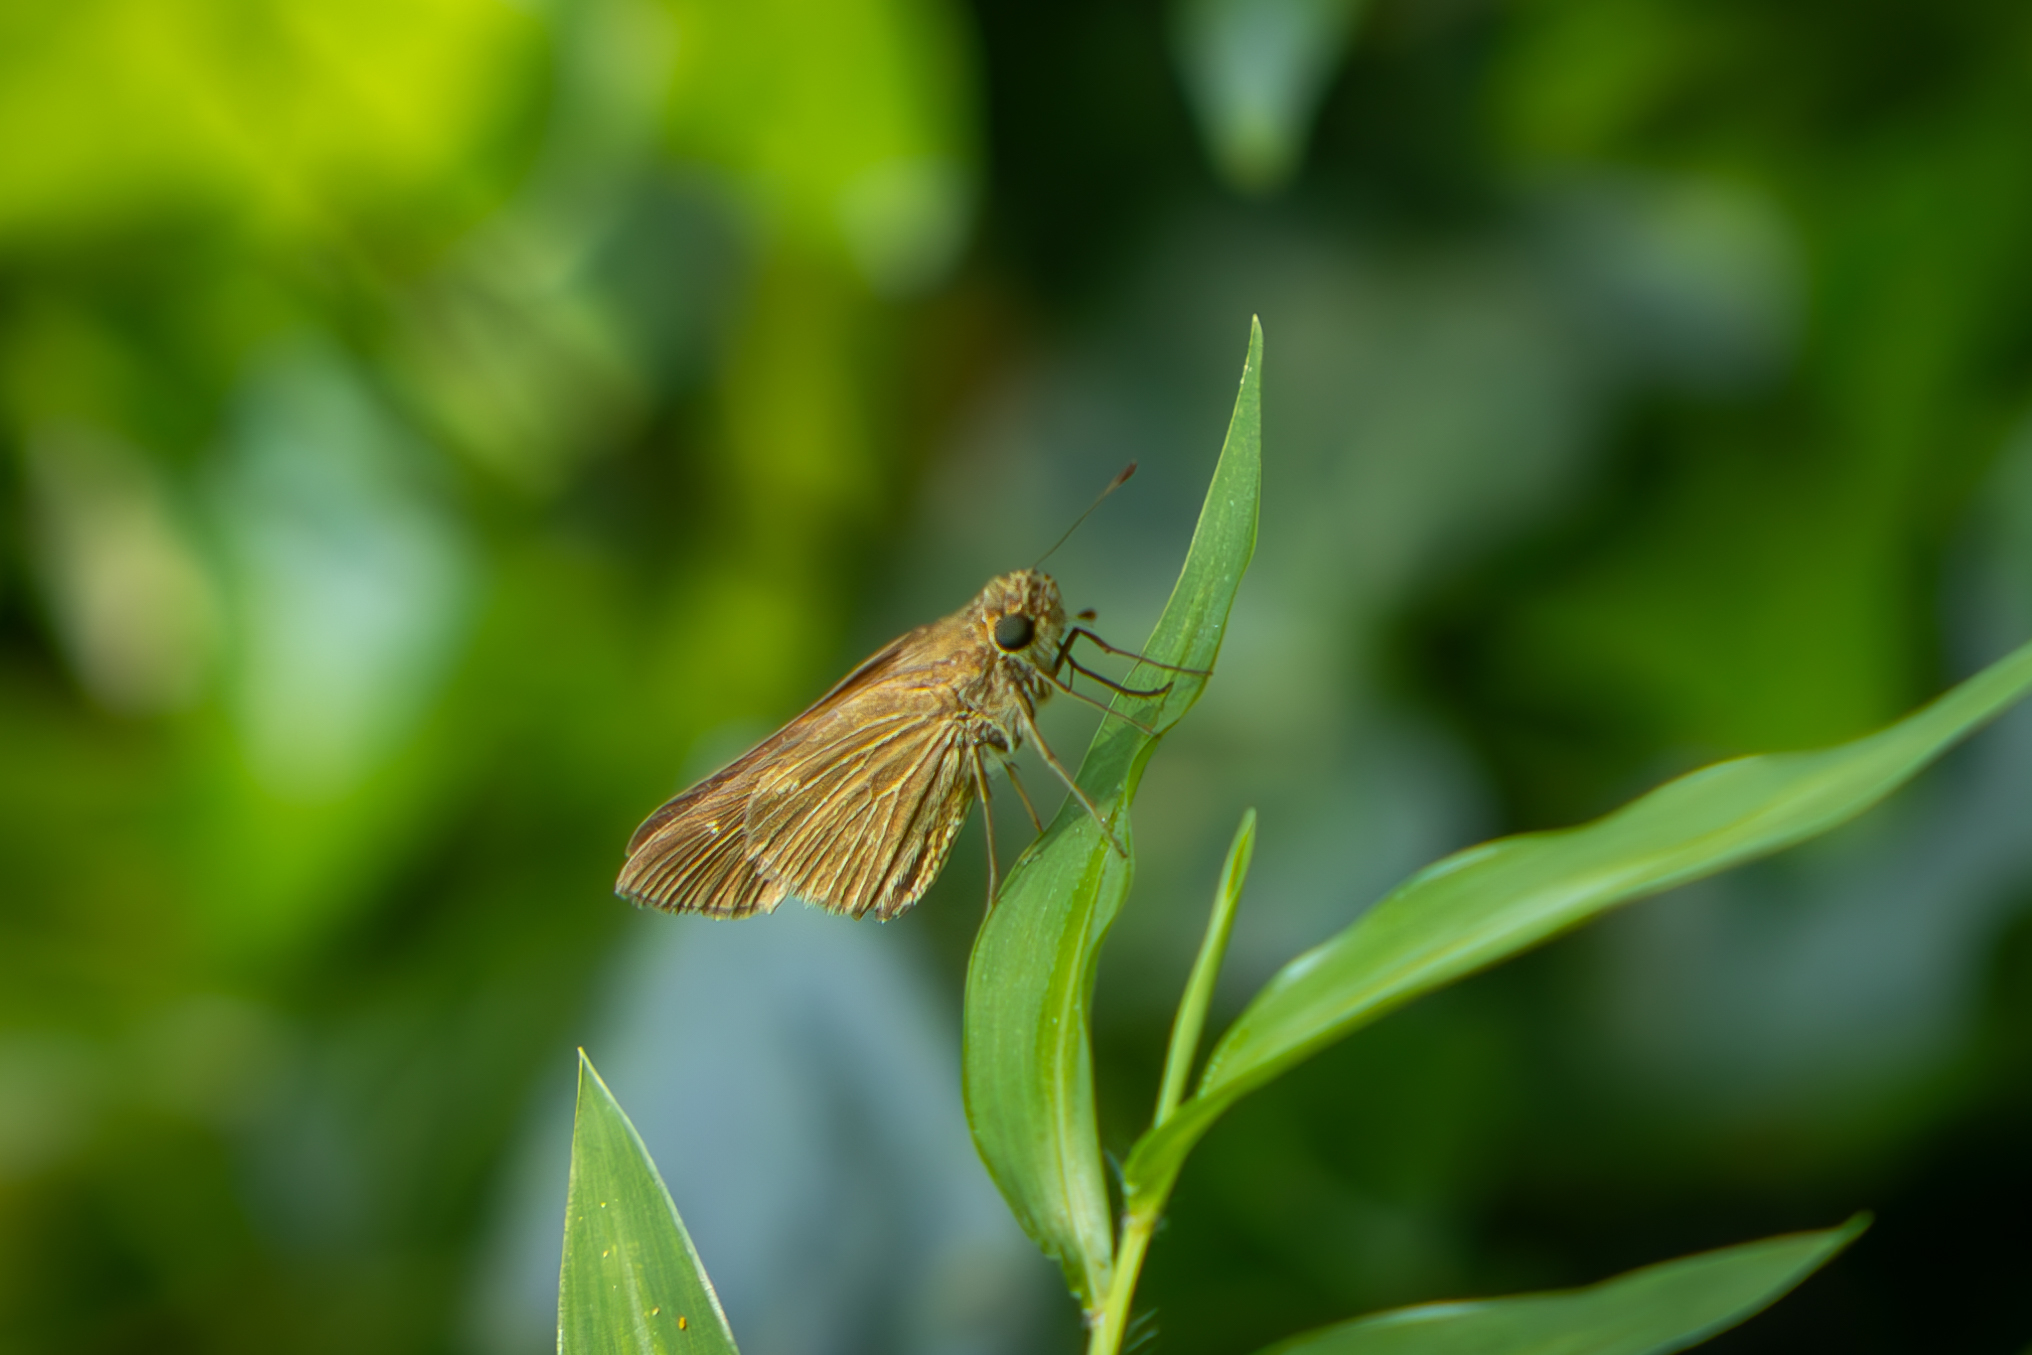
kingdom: Animalia
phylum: Arthropoda
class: Insecta
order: Lepidoptera
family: Hesperiidae
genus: Panoquina
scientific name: Panoquina ocola
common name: Ocola skipper
